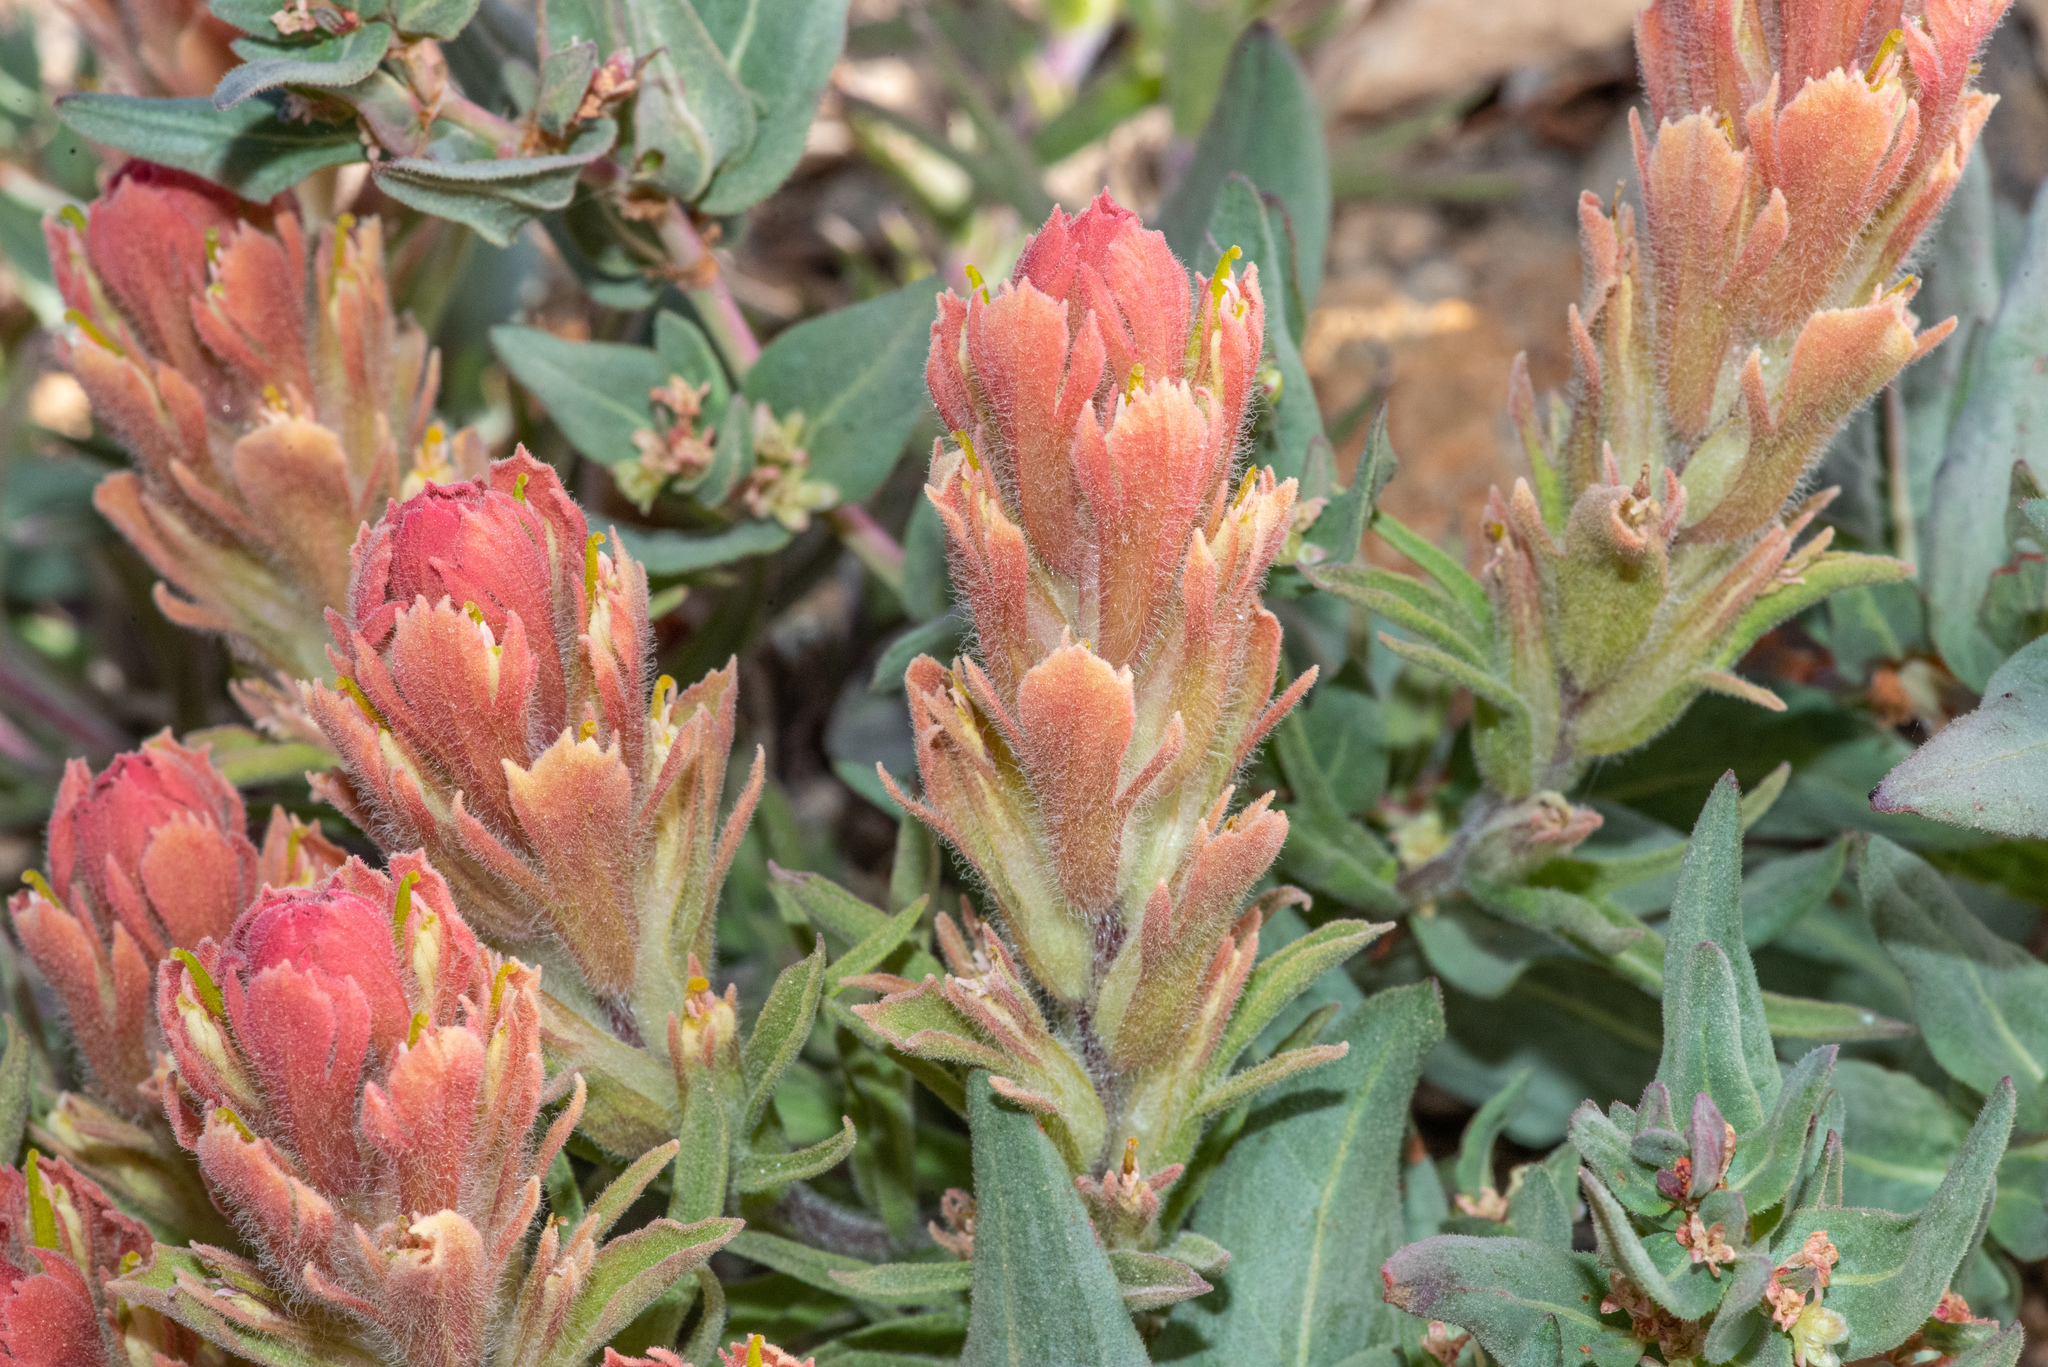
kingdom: Plantae
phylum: Tracheophyta
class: Magnoliopsida
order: Lamiales
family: Orobanchaceae
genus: Castilleja
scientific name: Castilleja arachnoidea
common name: Cobwebby indian paintbrush
